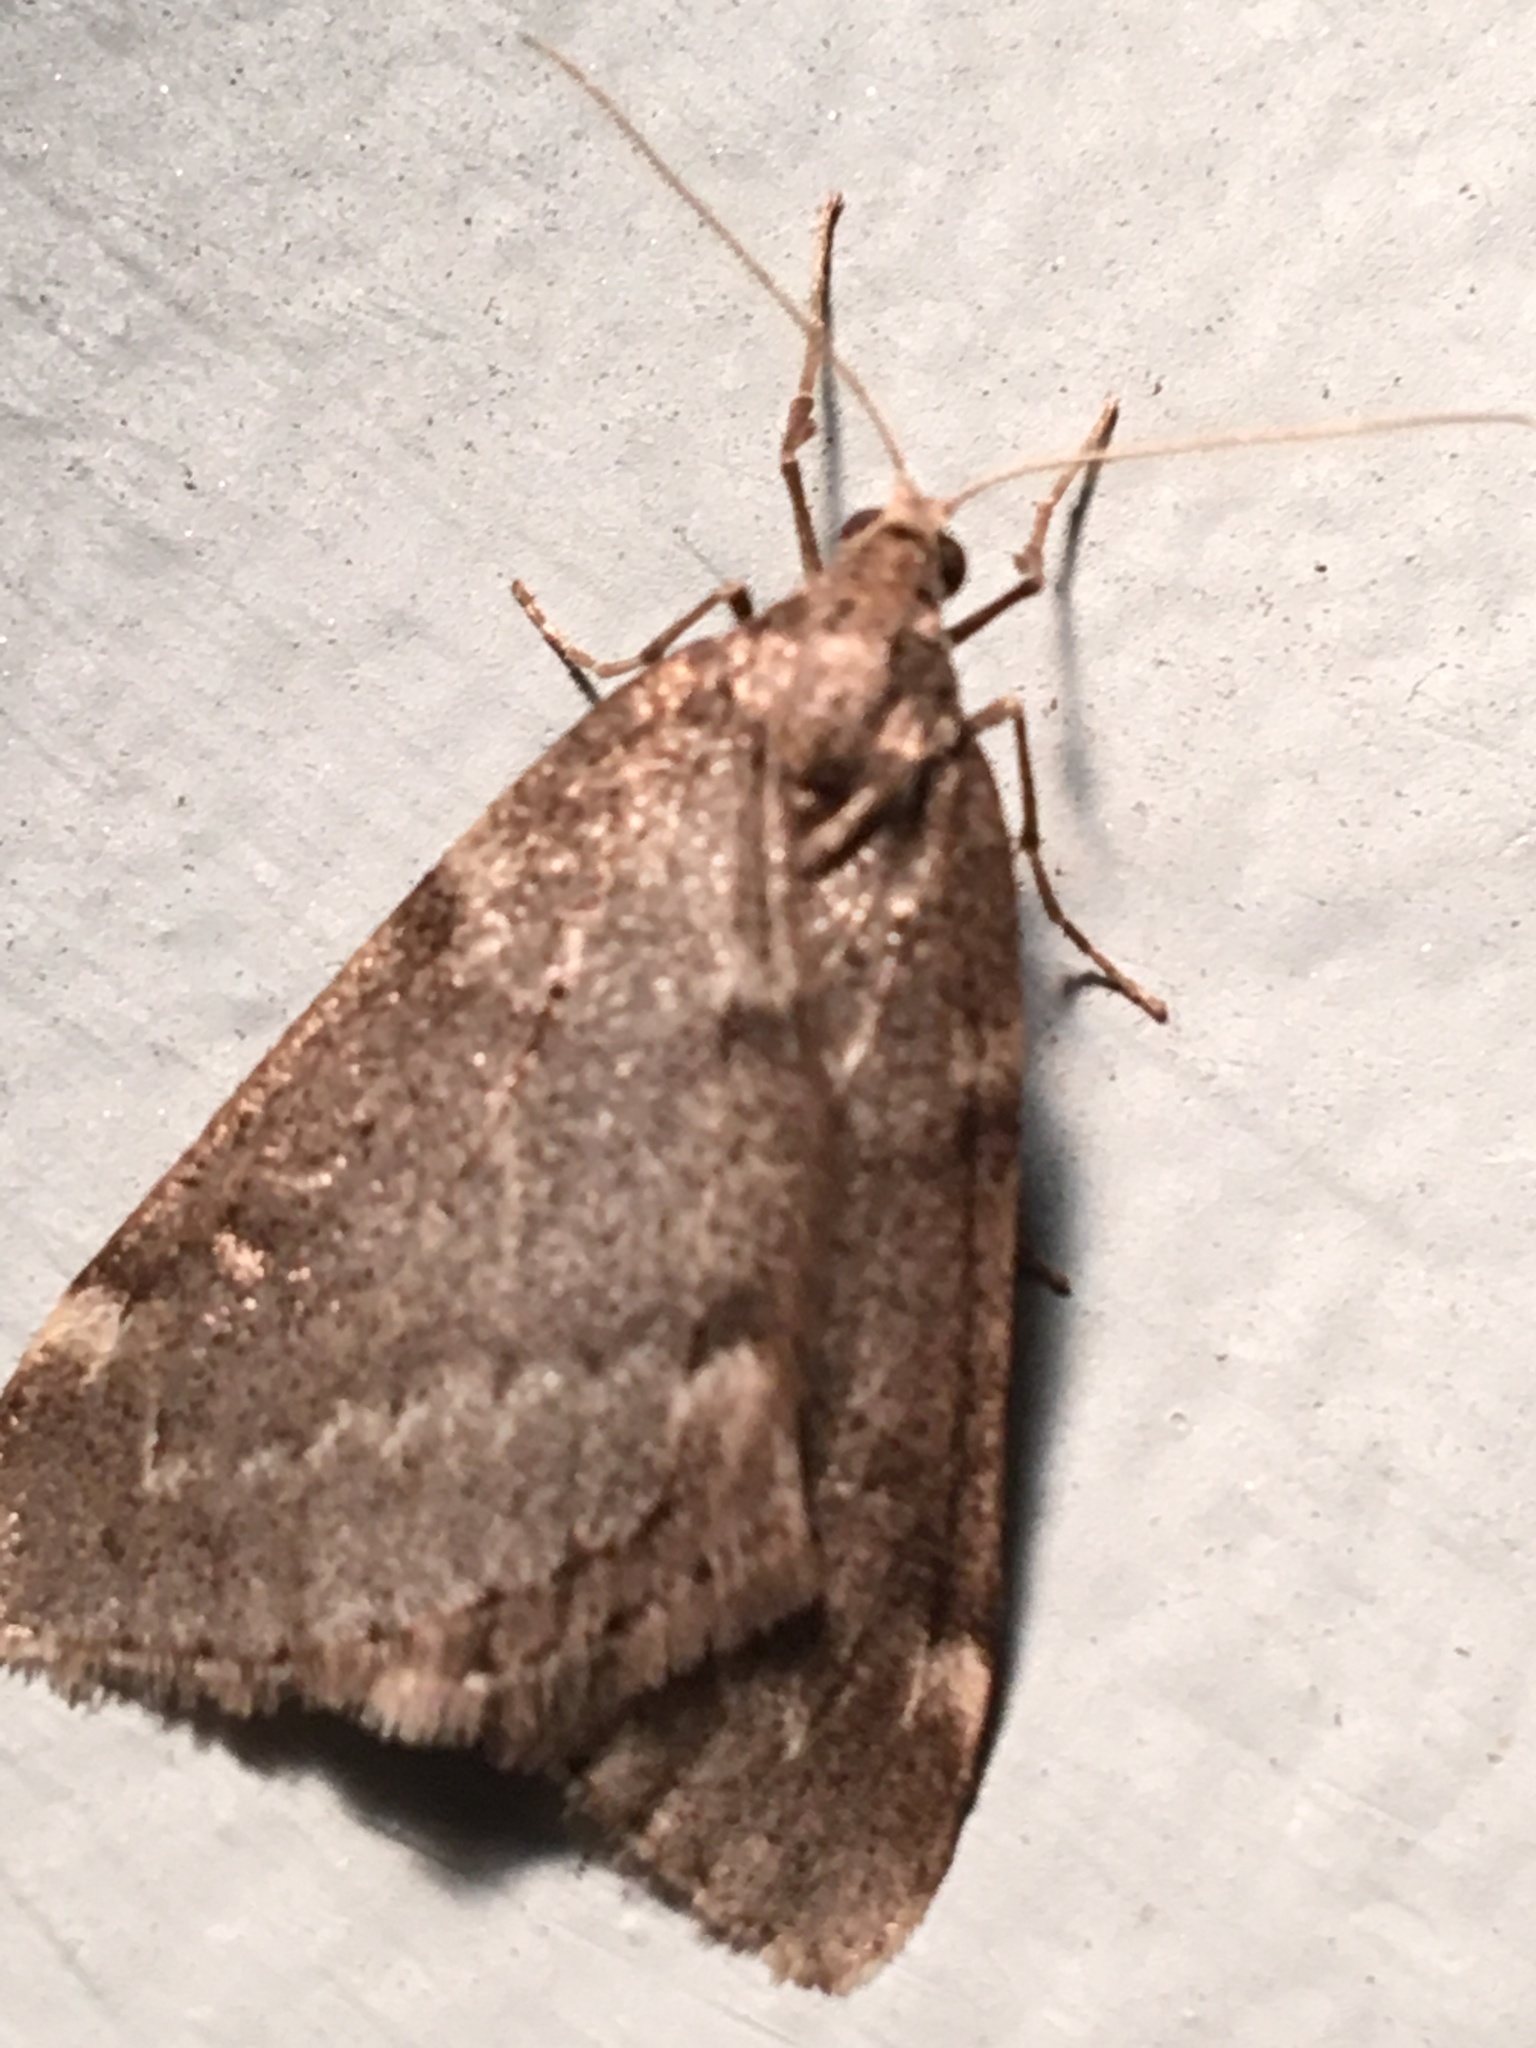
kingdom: Animalia
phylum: Arthropoda
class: Insecta
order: Lepidoptera
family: Geometridae
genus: Alsophila
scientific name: Alsophila pometaria
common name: Fall cankerworm
